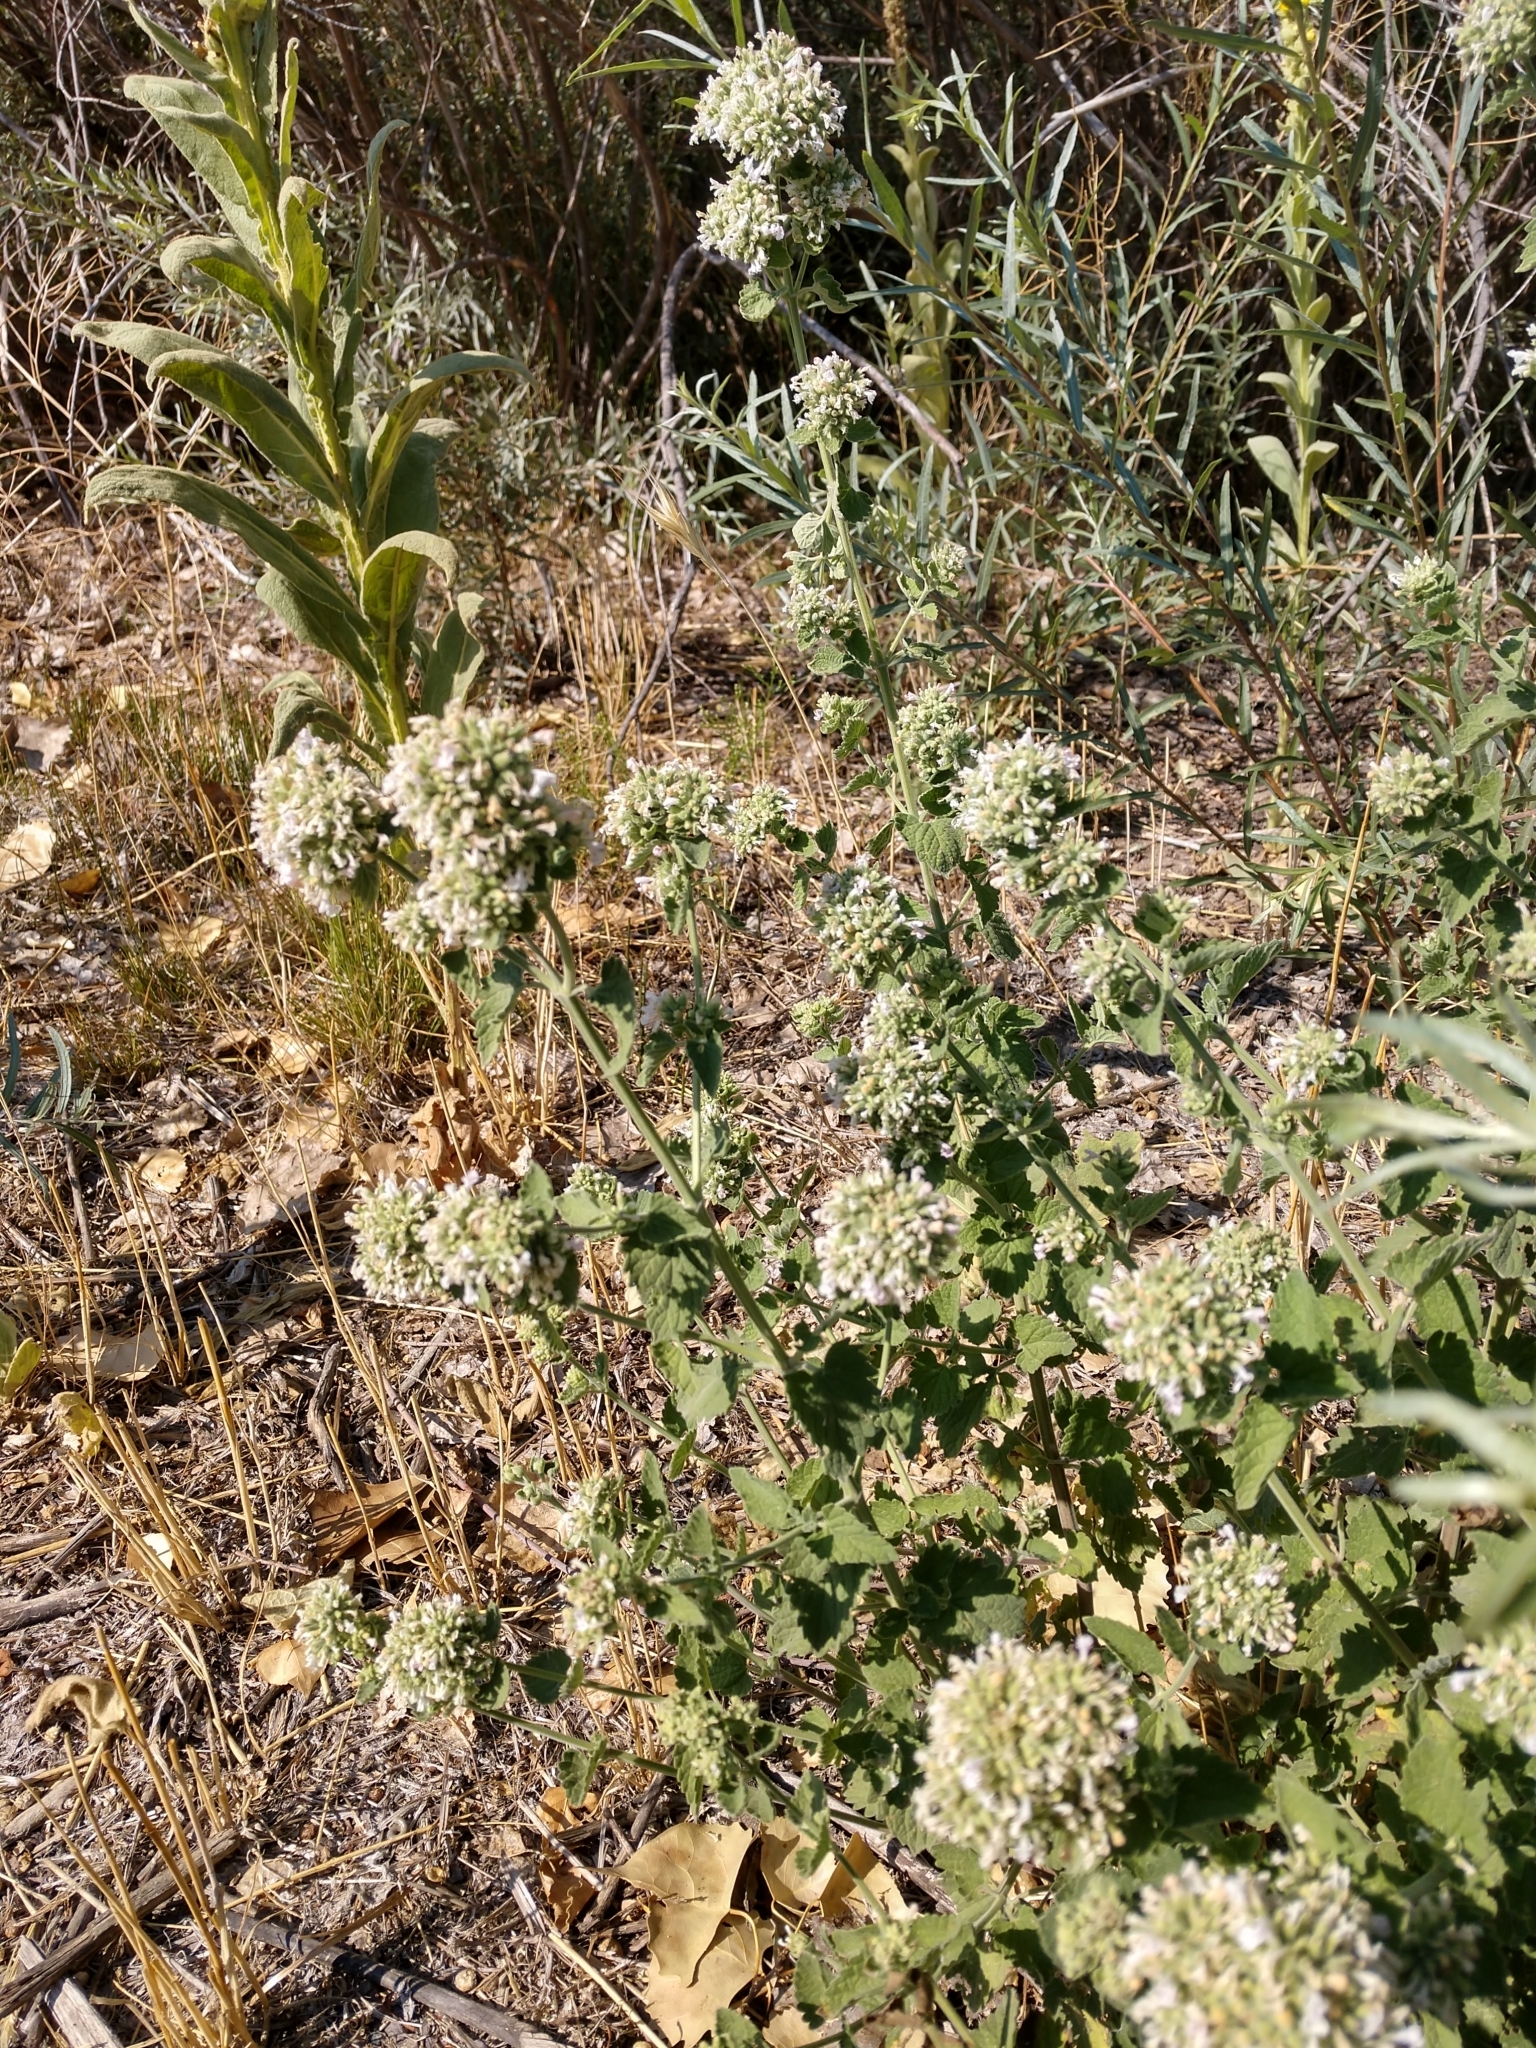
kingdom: Plantae
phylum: Tracheophyta
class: Magnoliopsida
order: Lamiales
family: Lamiaceae
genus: Nepeta
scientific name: Nepeta cataria
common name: Catnip
